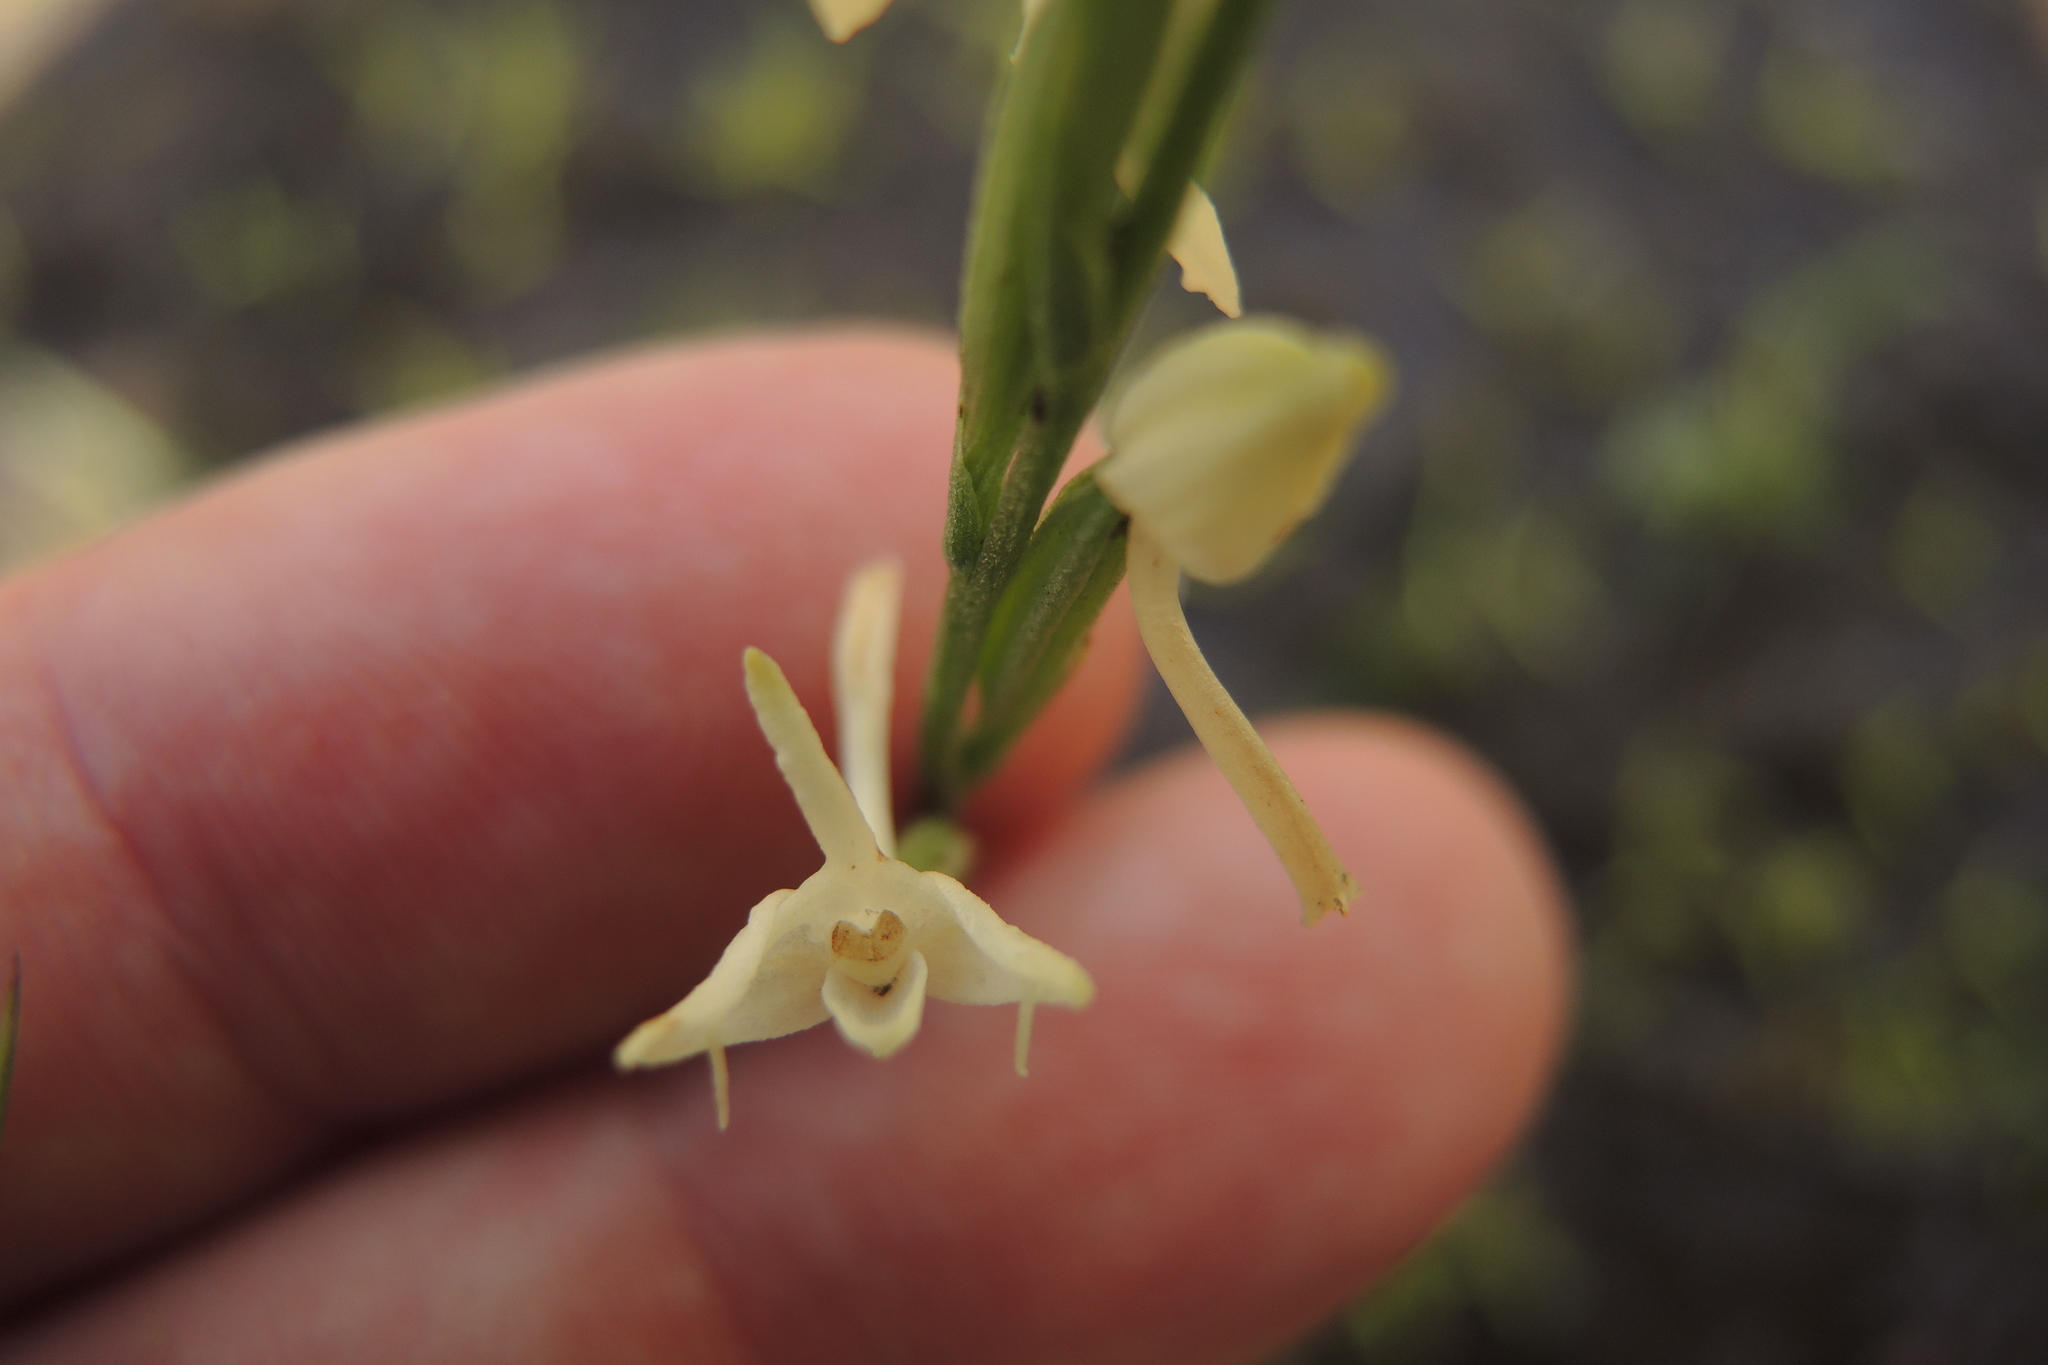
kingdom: Plantae
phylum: Tracheophyta
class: Liliopsida
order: Asparagales
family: Orchidaceae
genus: Habenaria
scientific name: Habenaria propinquior
